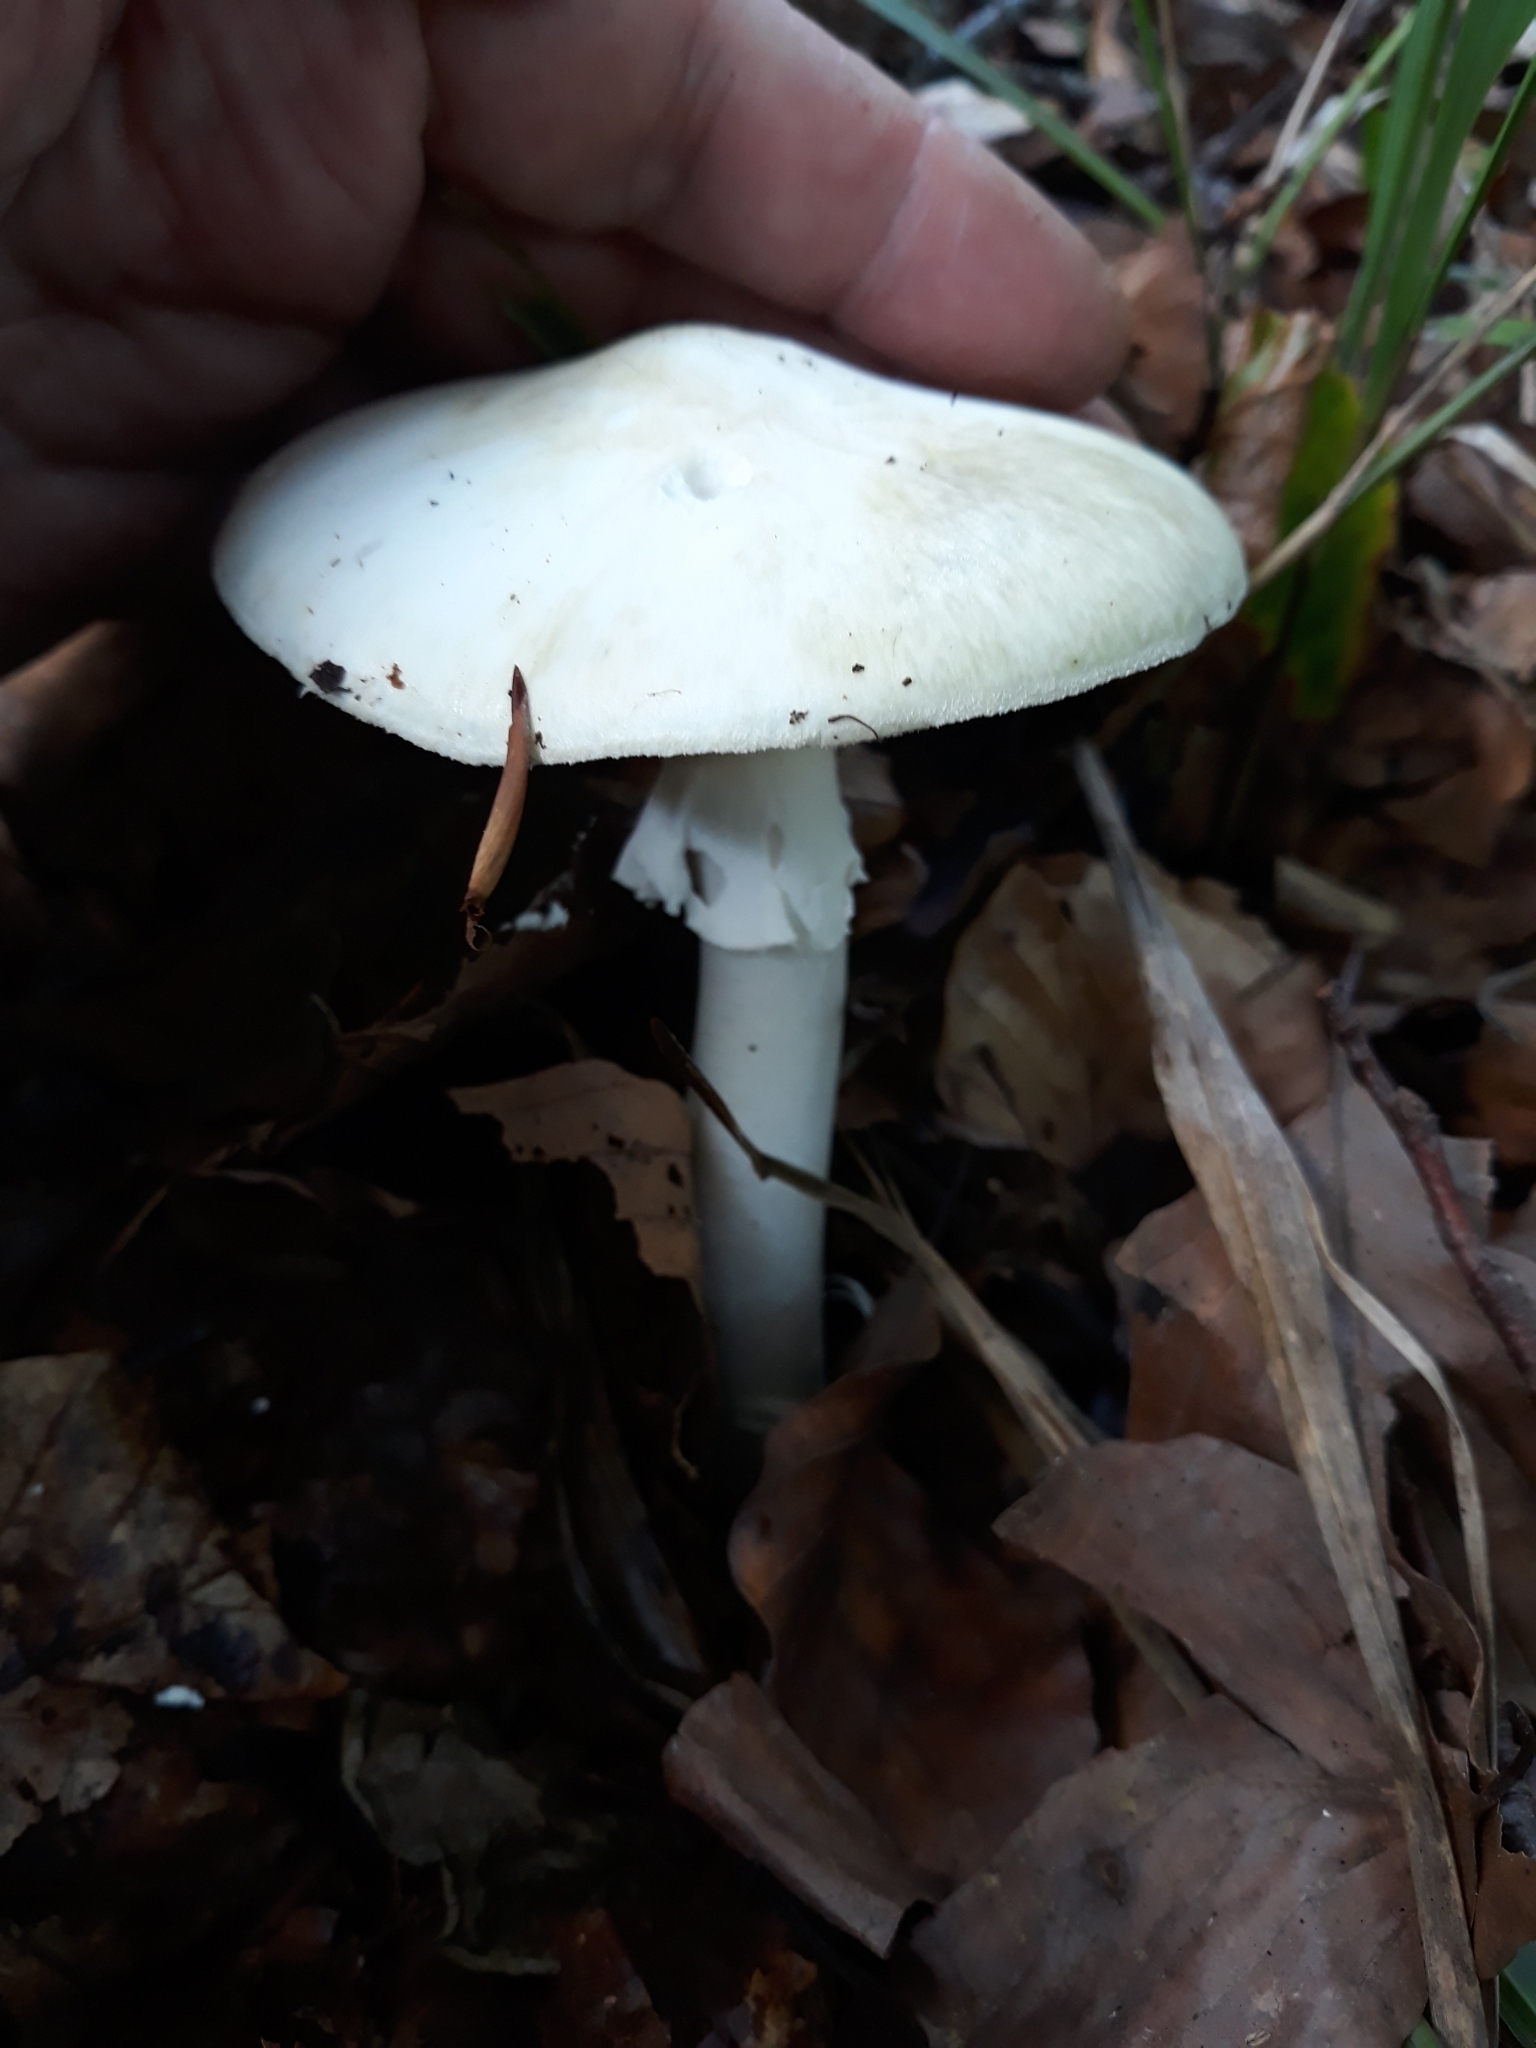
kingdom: Fungi
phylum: Basidiomycota
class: Agaricomycetes
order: Agaricales
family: Amanitaceae
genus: Amanita
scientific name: Amanita phalloides
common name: Death cap
